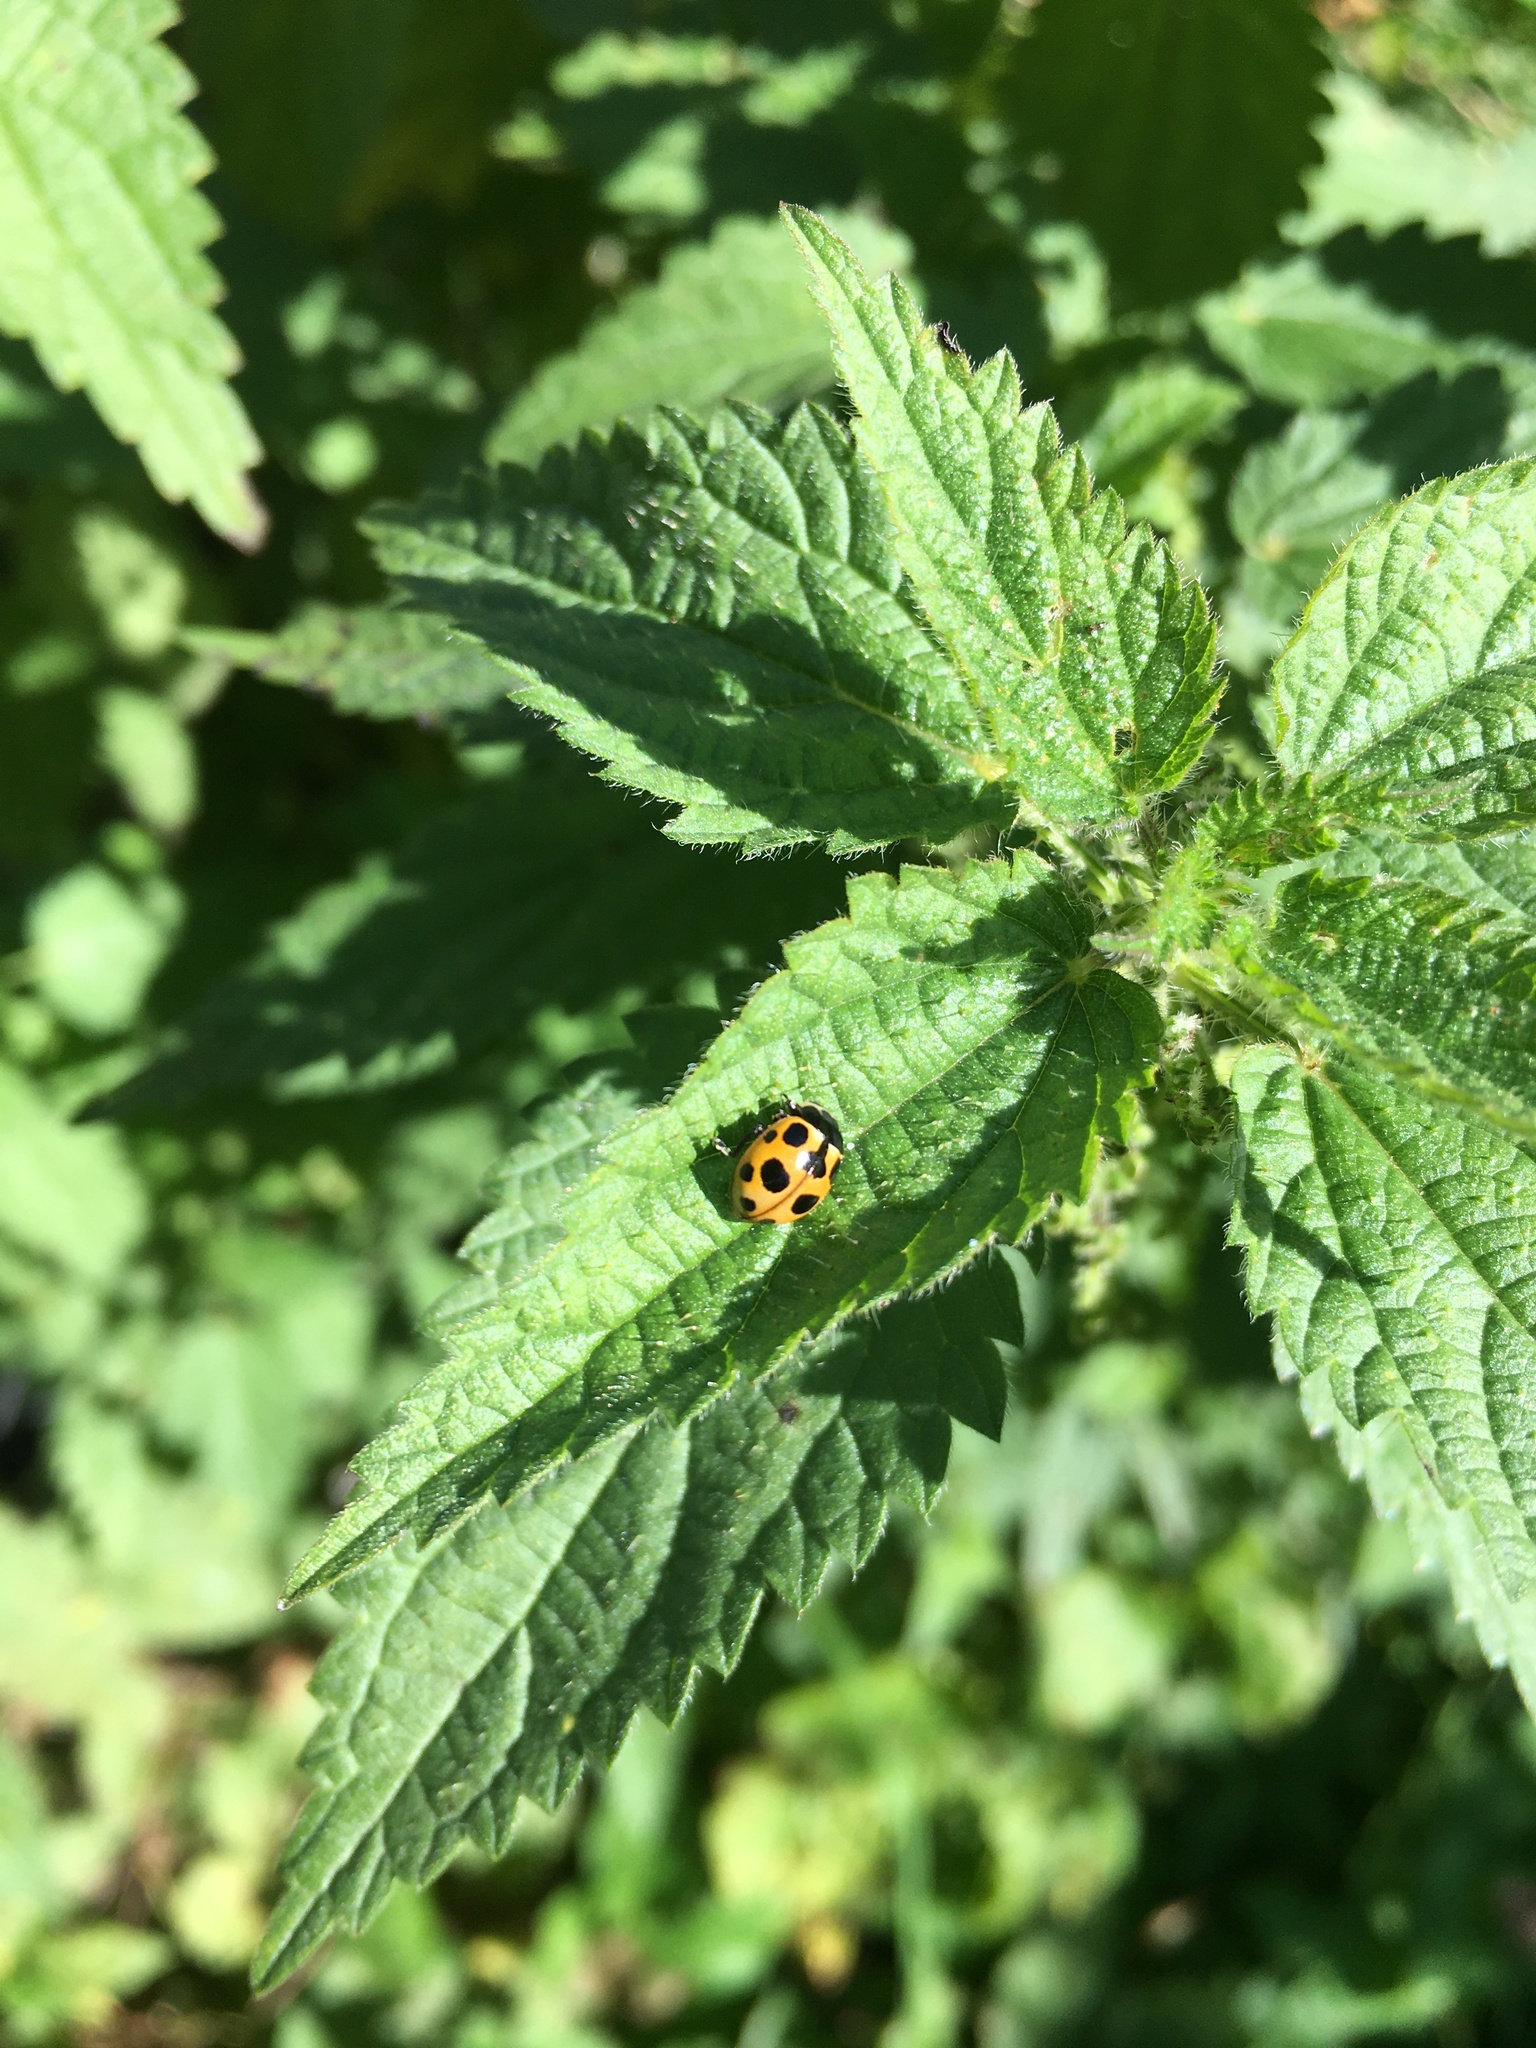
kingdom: Animalia
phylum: Arthropoda
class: Insecta
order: Coleoptera
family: Coccinellidae
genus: Ceratomegilla
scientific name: Ceratomegilla notata
